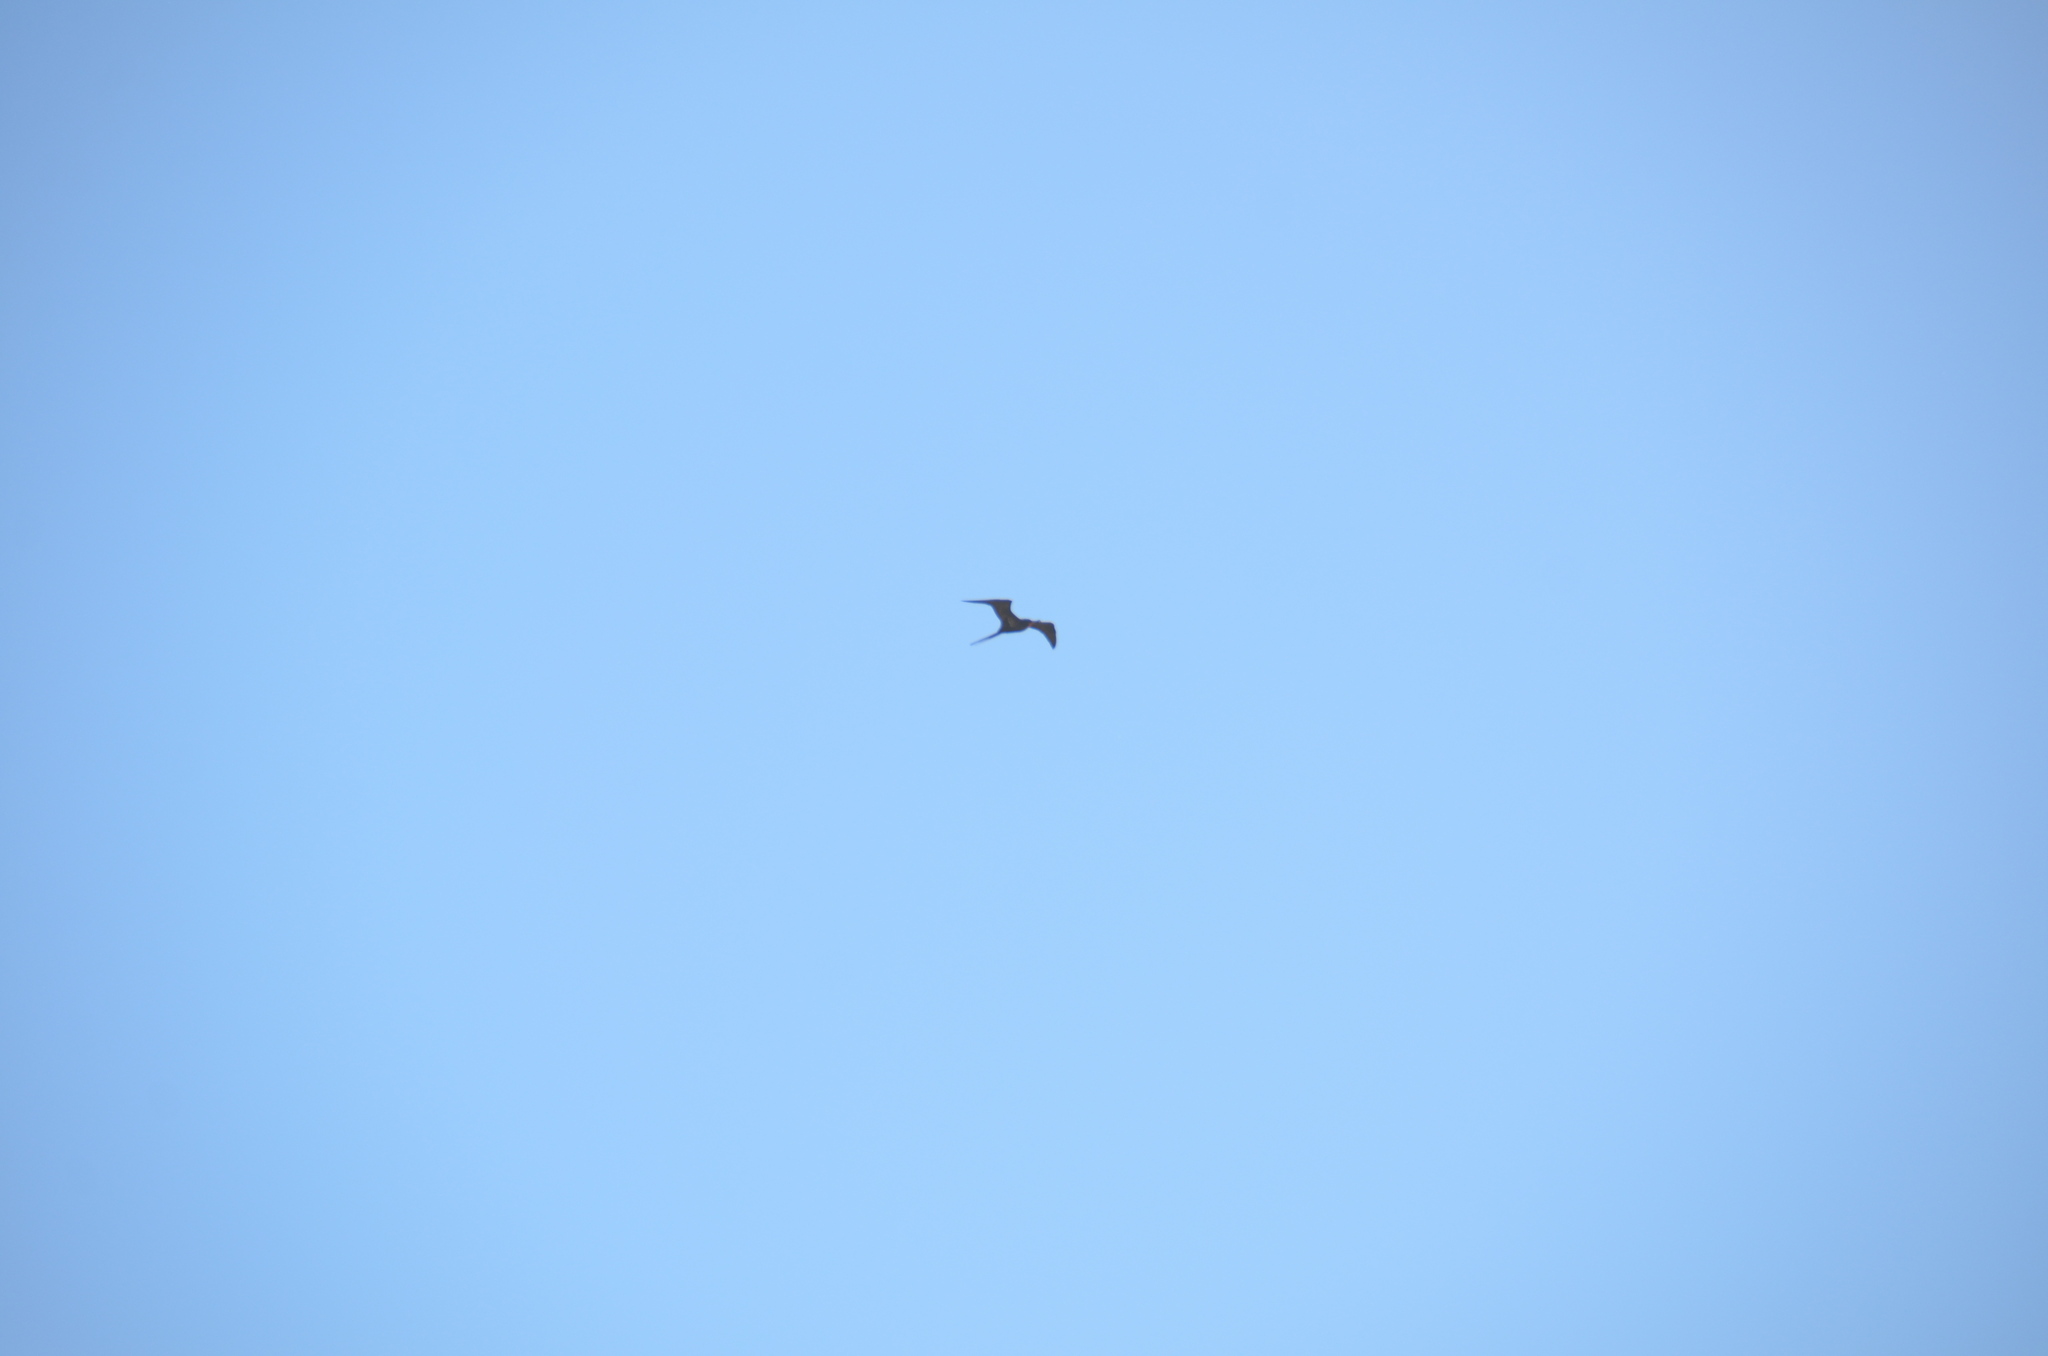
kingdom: Animalia
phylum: Chordata
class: Aves
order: Suliformes
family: Fregatidae
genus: Fregata
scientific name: Fregata minor
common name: Great frigatebird
